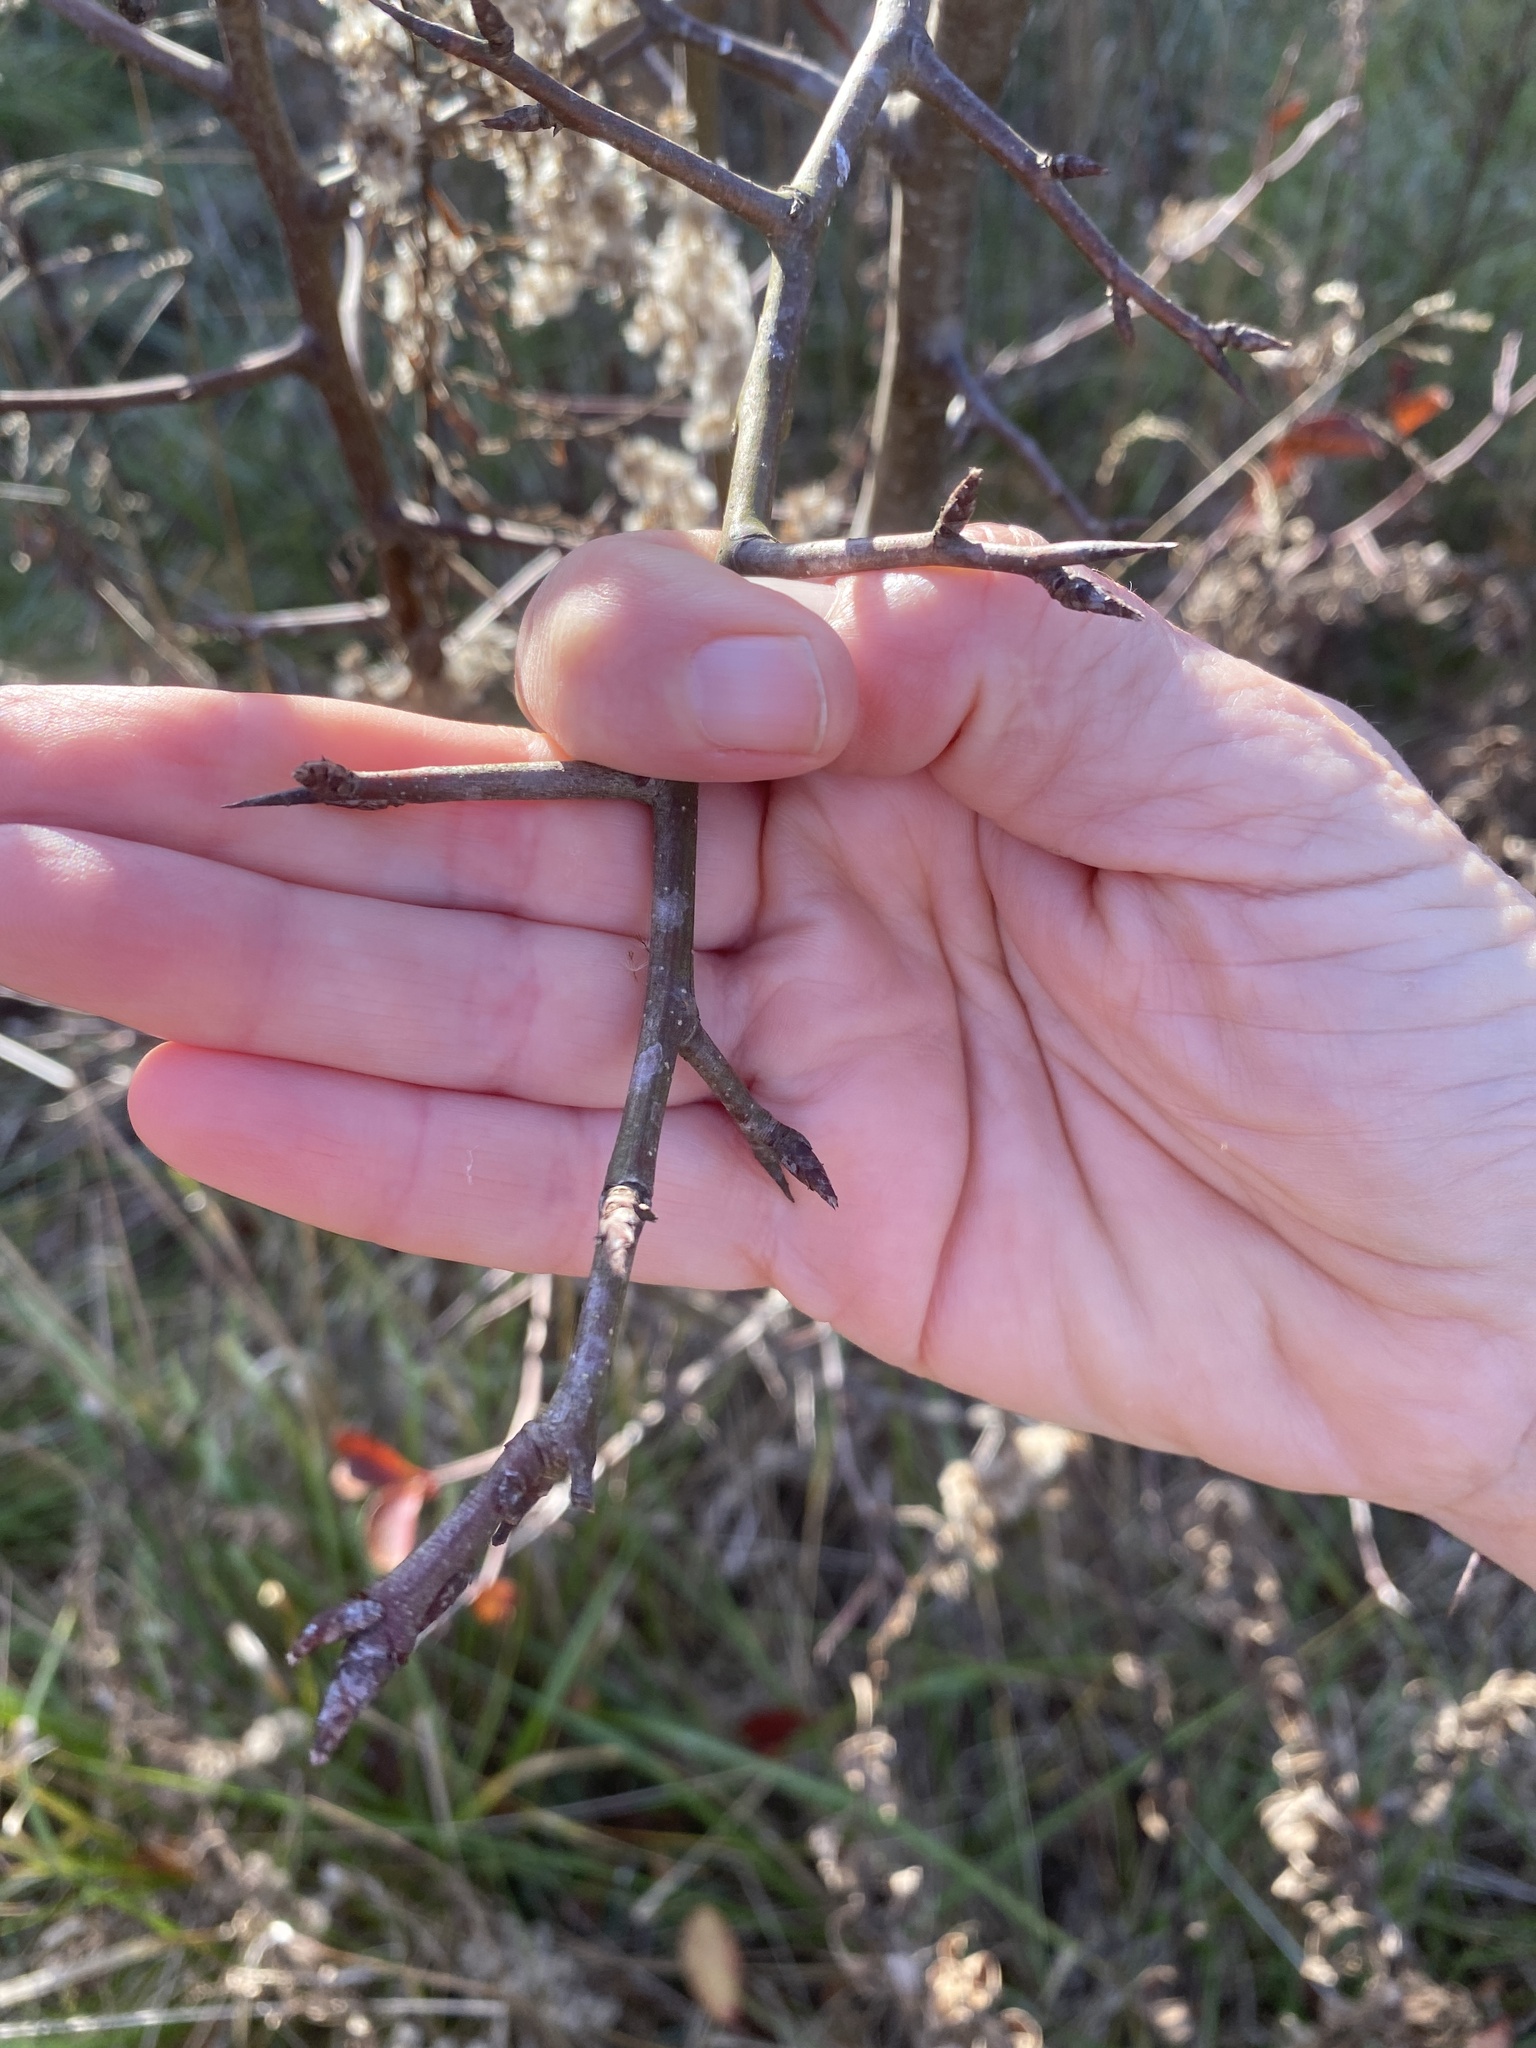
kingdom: Plantae
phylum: Tracheophyta
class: Magnoliopsida
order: Rosales
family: Rosaceae
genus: Pyrus
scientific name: Pyrus calleryana
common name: Callery pear
